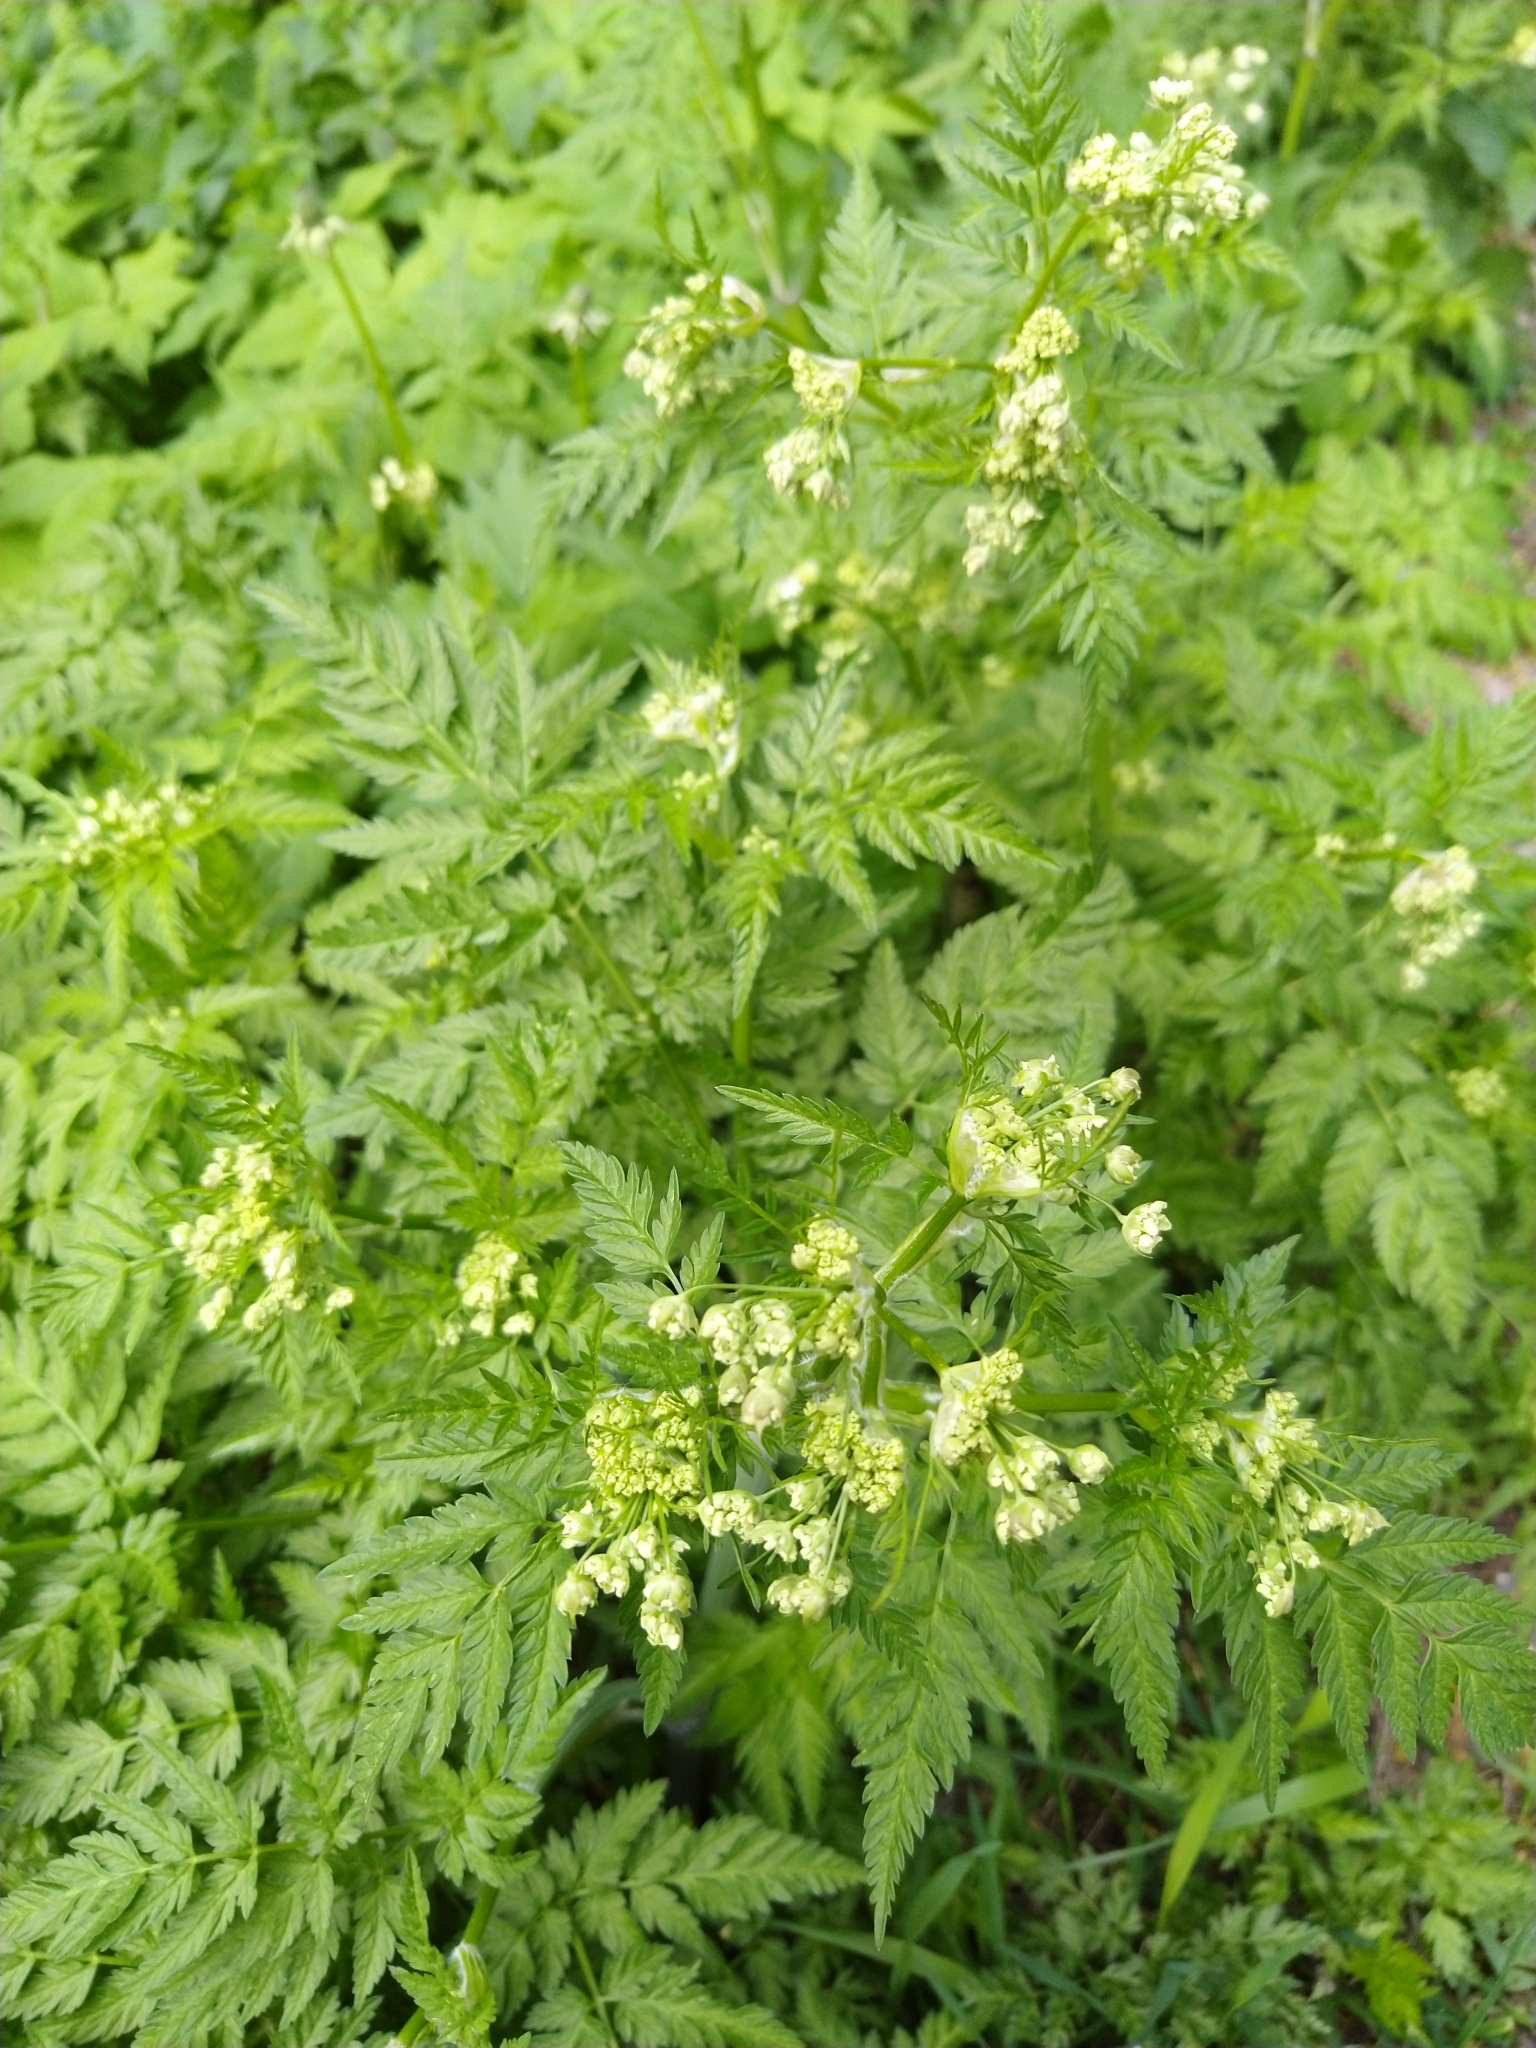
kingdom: Plantae
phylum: Tracheophyta
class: Magnoliopsida
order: Apiales
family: Apiaceae
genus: Anthriscus
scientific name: Anthriscus sylvestris
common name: Cow parsley
